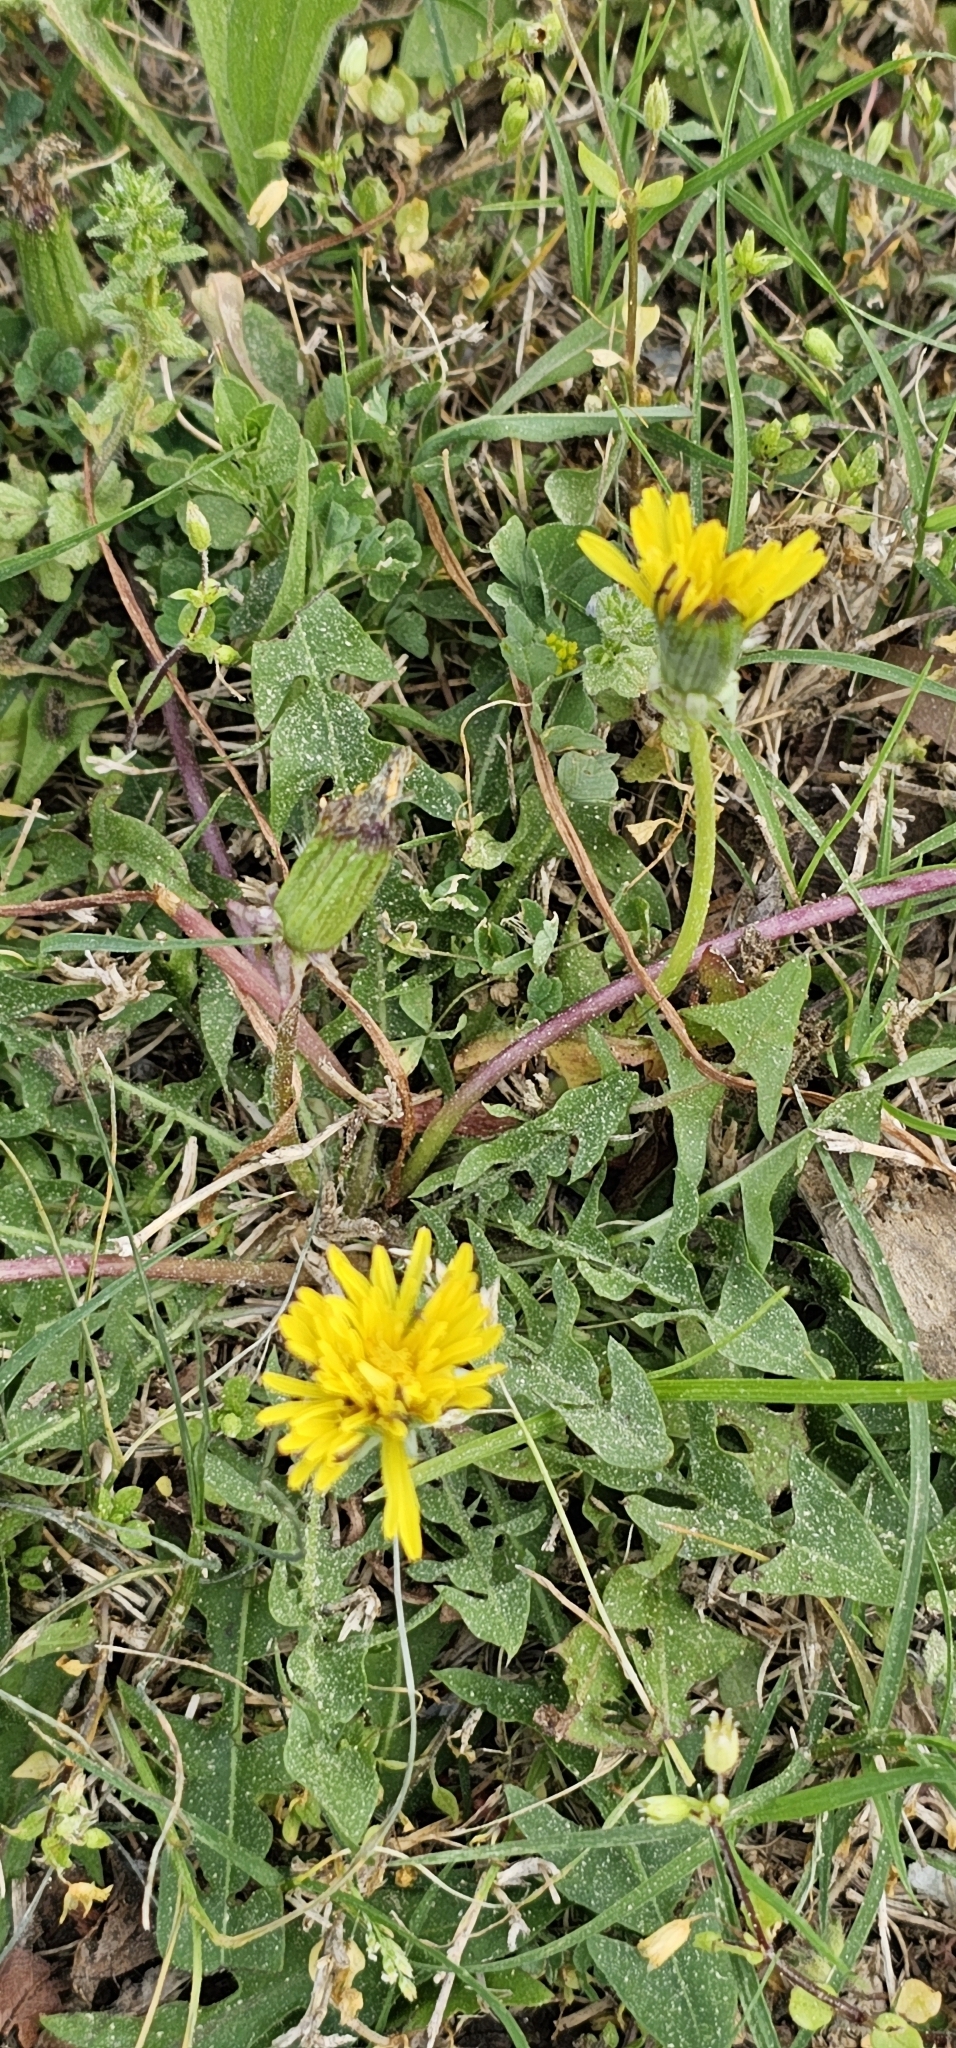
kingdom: Plantae
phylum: Tracheophyta
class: Magnoliopsida
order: Asterales
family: Asteraceae
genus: Taraxacum
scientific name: Taraxacum officinale
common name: Common dandelion
